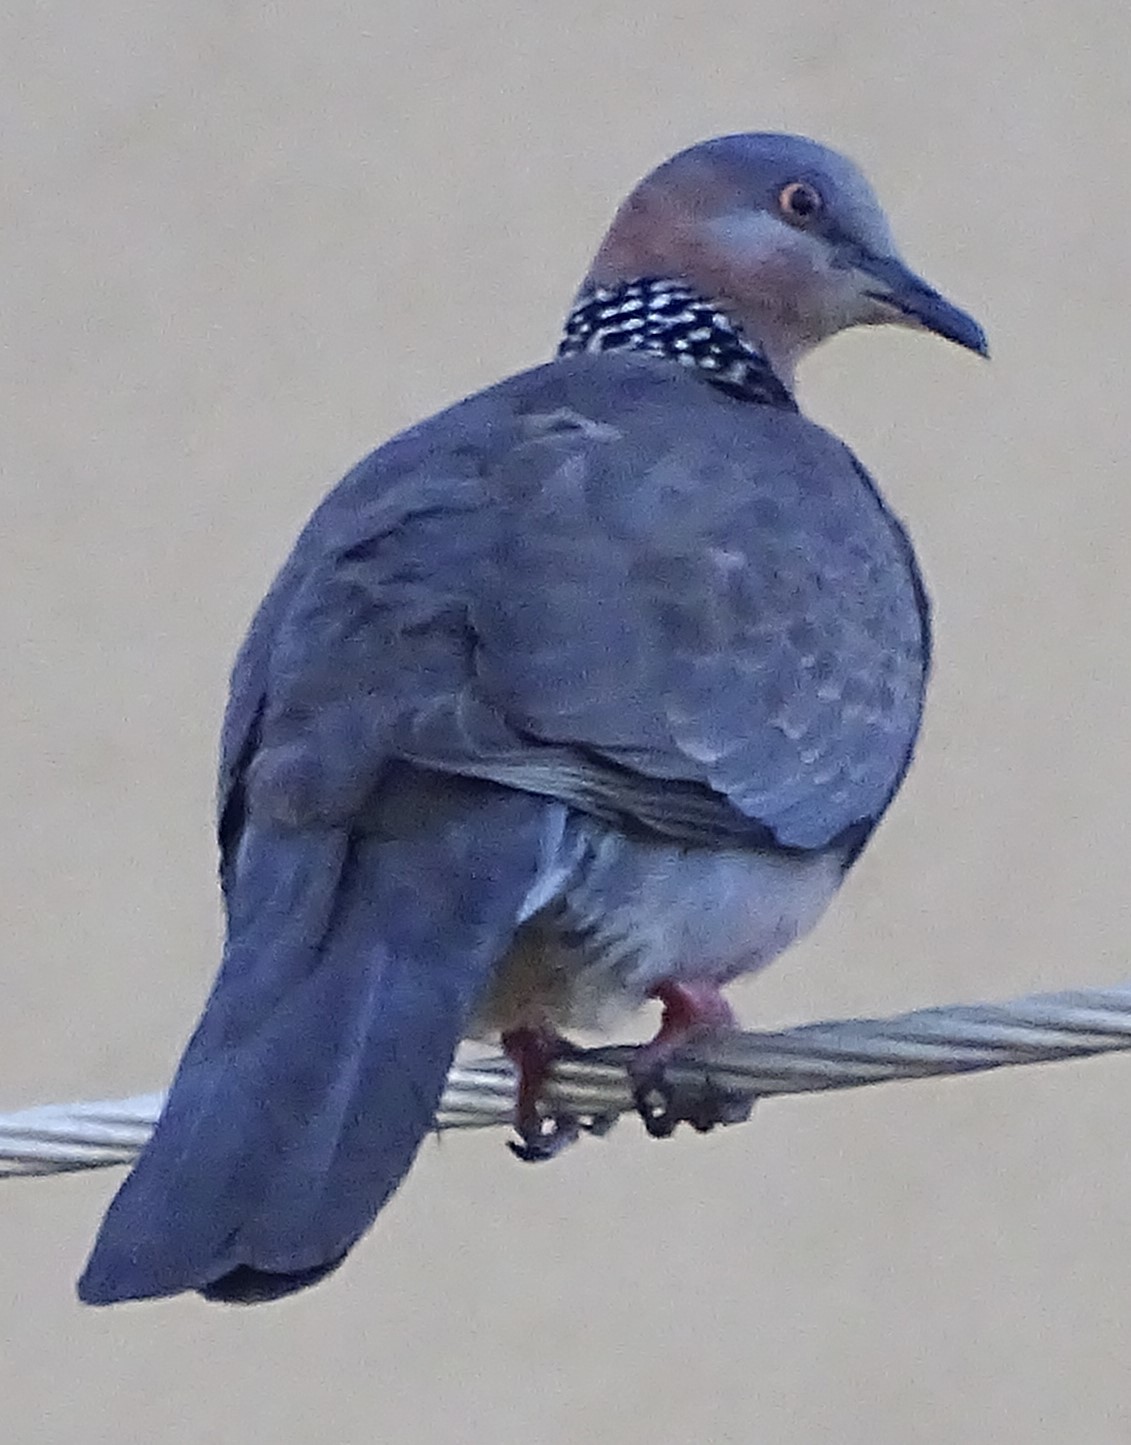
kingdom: Animalia
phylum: Chordata
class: Aves
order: Columbiformes
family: Columbidae
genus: Spilopelia
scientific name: Spilopelia chinensis
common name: Spotted dove
